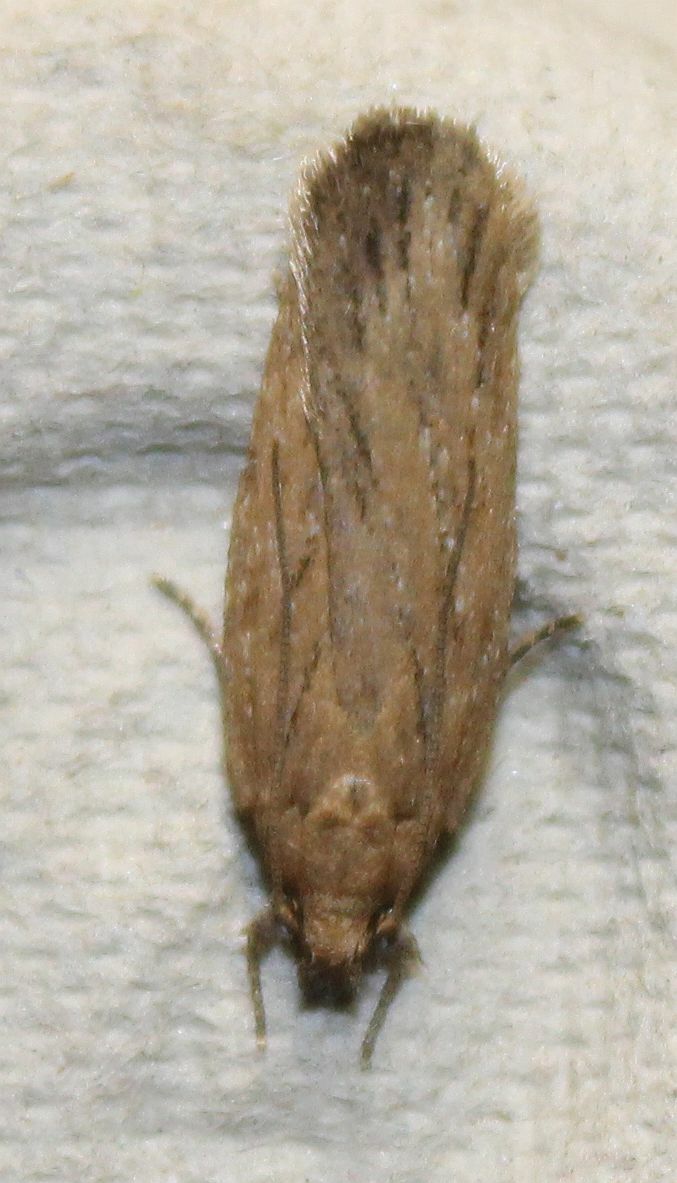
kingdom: Animalia
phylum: Arthropoda
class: Insecta
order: Lepidoptera
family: Depressariidae
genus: Depressaria
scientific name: Depressaria apiella
